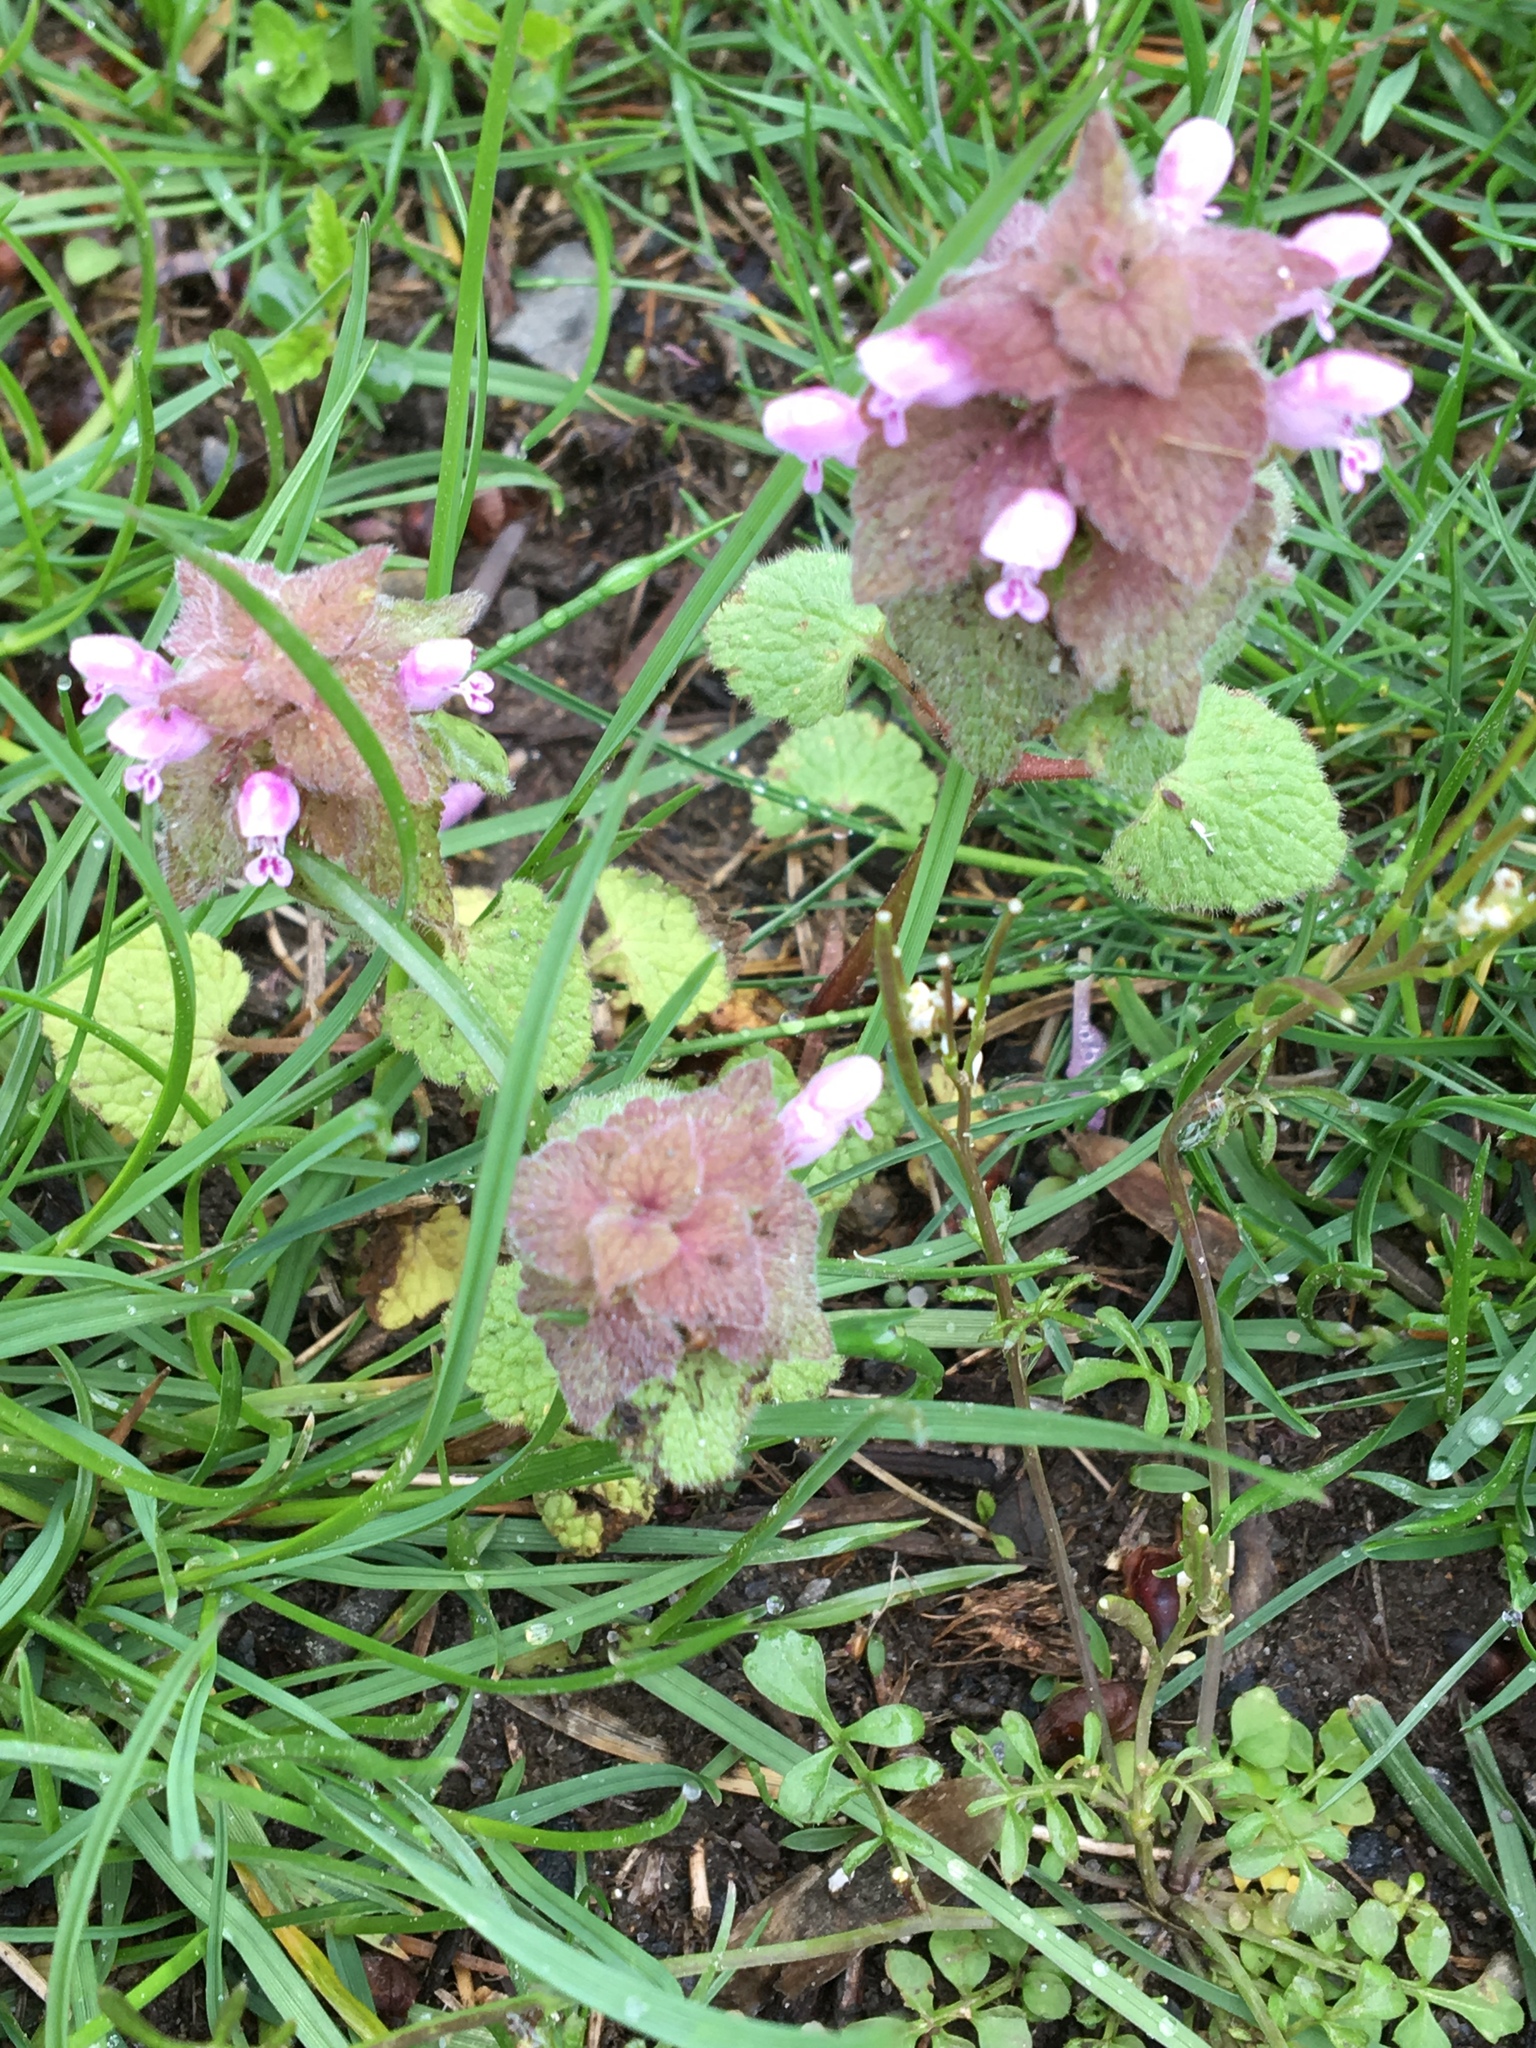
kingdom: Plantae
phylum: Tracheophyta
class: Magnoliopsida
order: Lamiales
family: Lamiaceae
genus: Lamium
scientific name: Lamium purpureum
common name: Red dead-nettle
